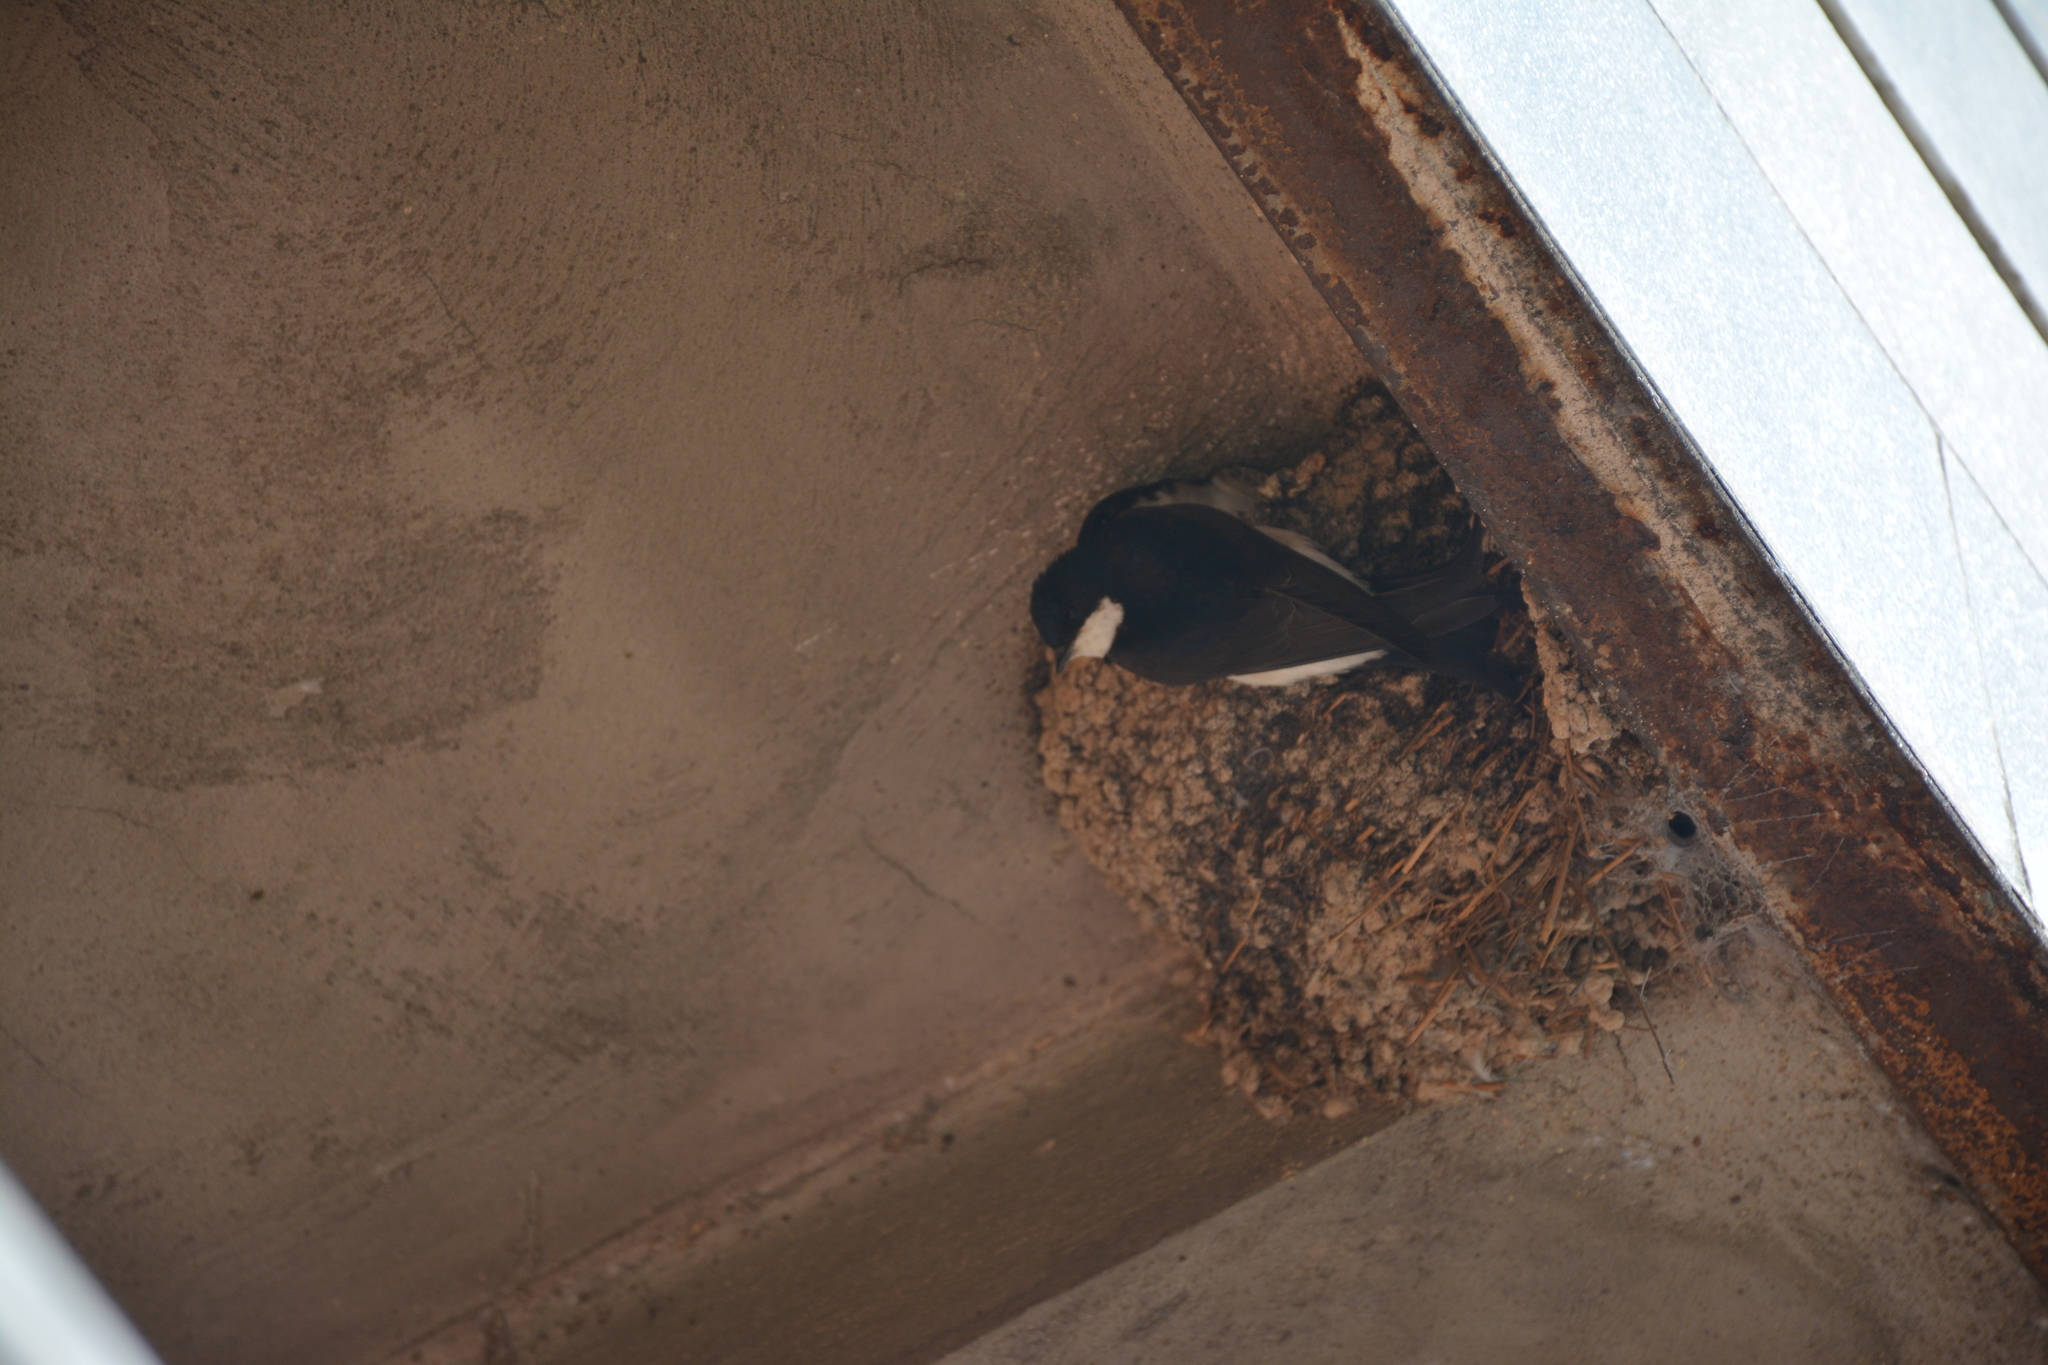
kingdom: Animalia
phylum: Chordata
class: Aves
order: Passeriformes
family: Hirundinidae
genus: Delichon
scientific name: Delichon urbicum
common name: Common house martin
